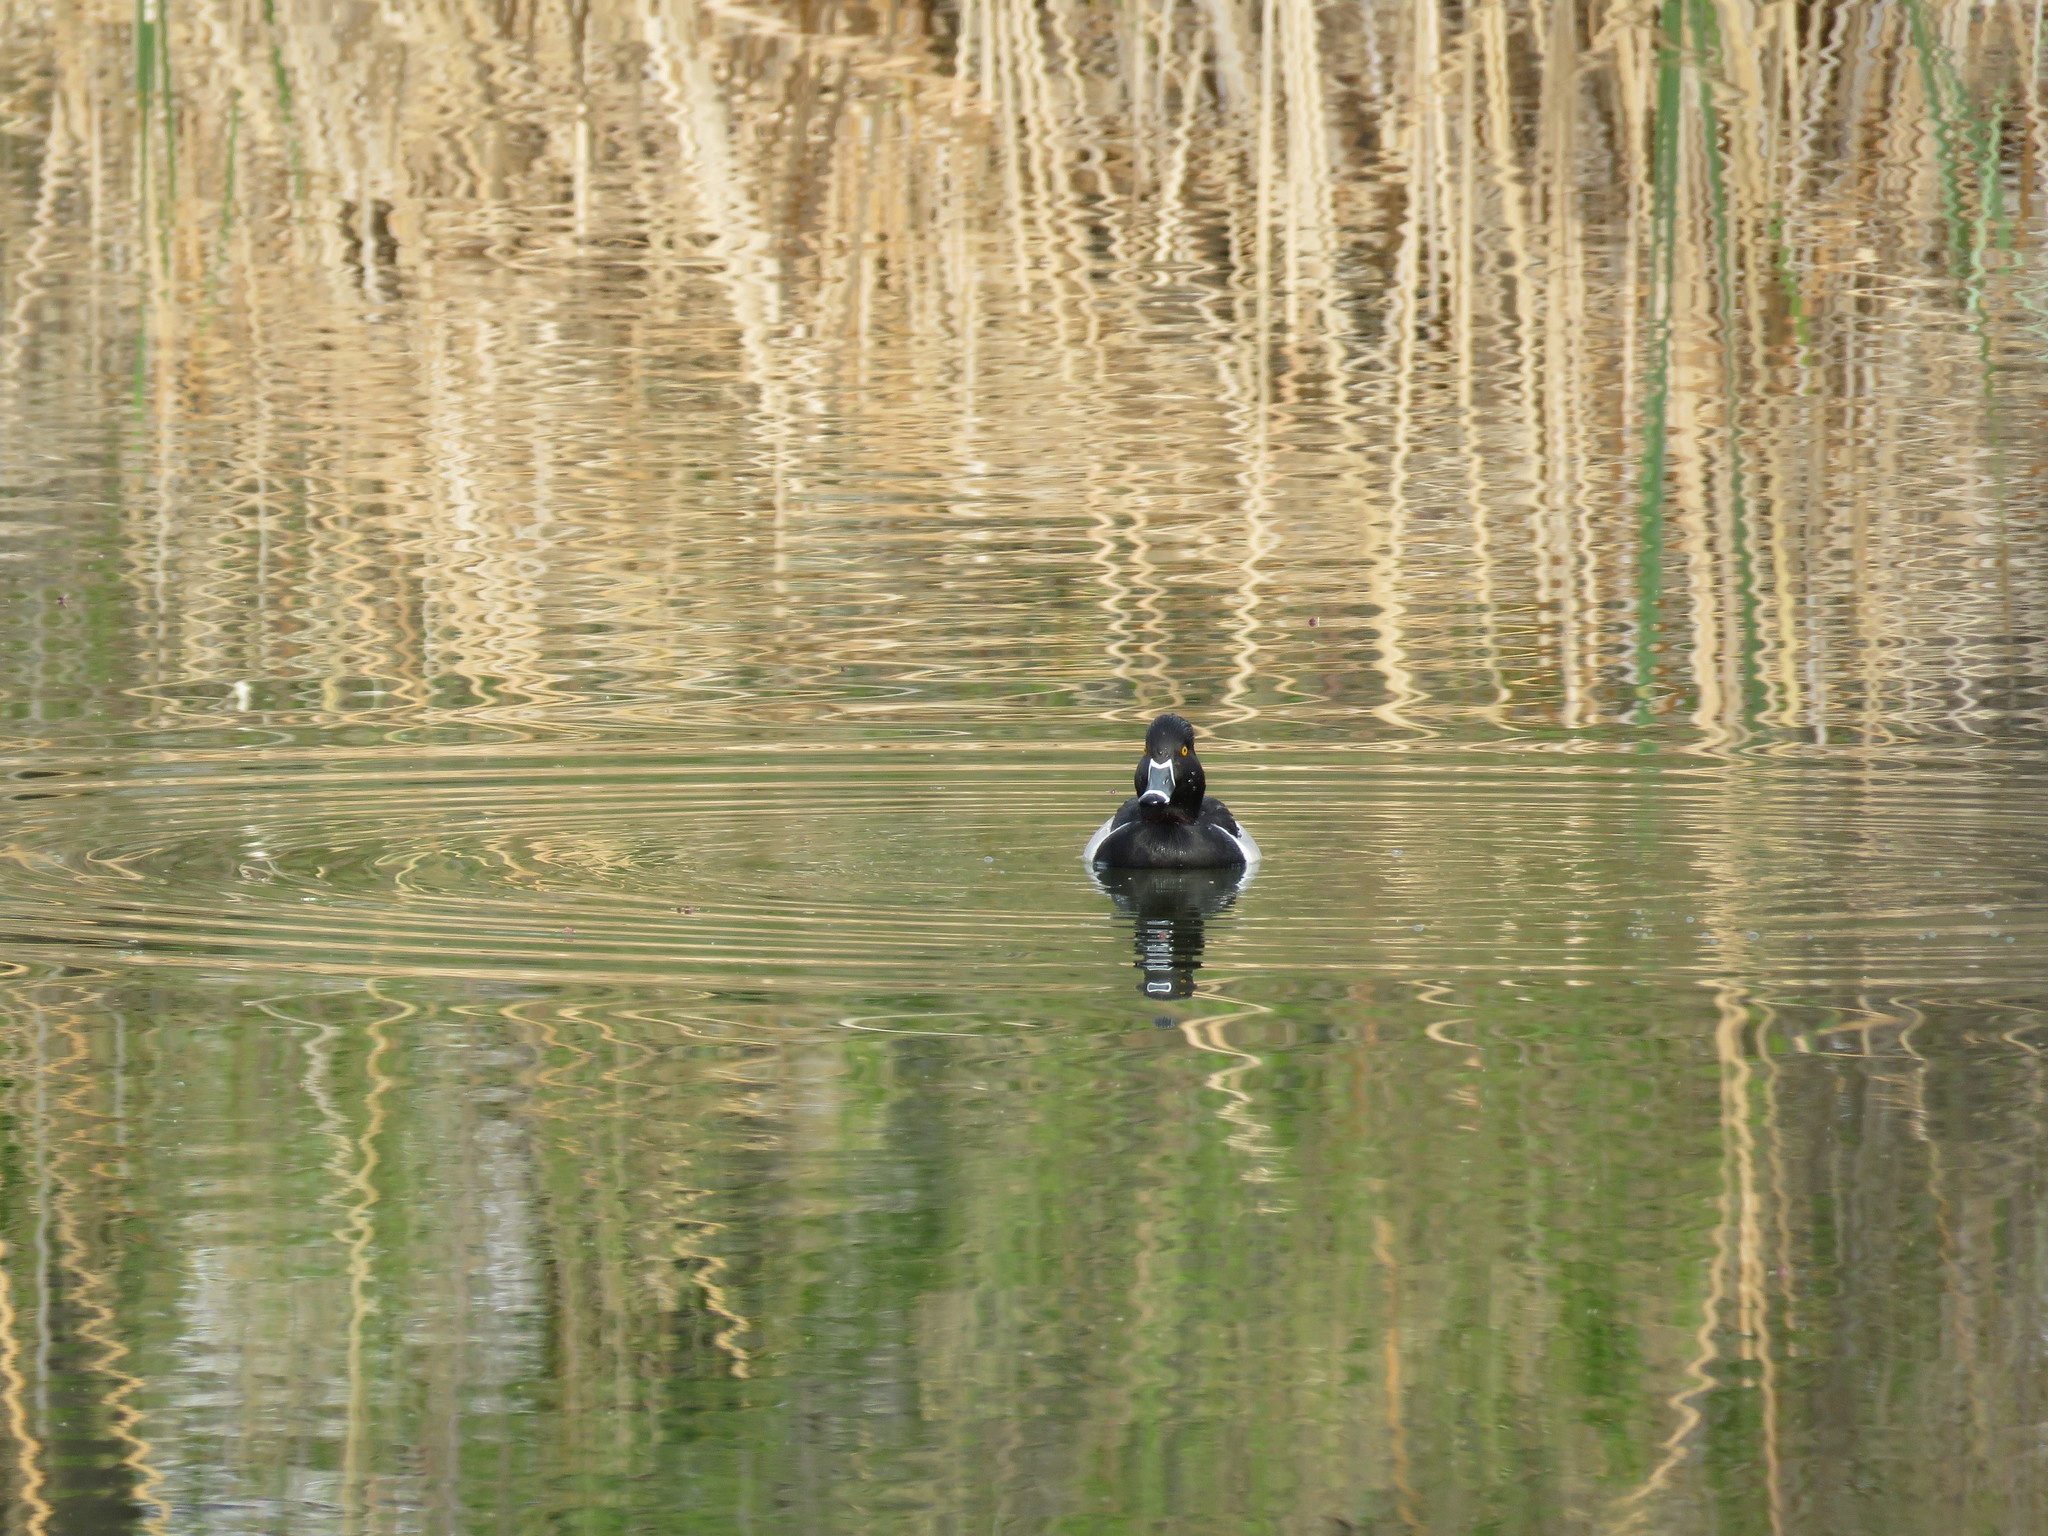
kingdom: Animalia
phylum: Chordata
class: Aves
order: Anseriformes
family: Anatidae
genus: Aythya
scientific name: Aythya collaris
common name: Ring-necked duck
